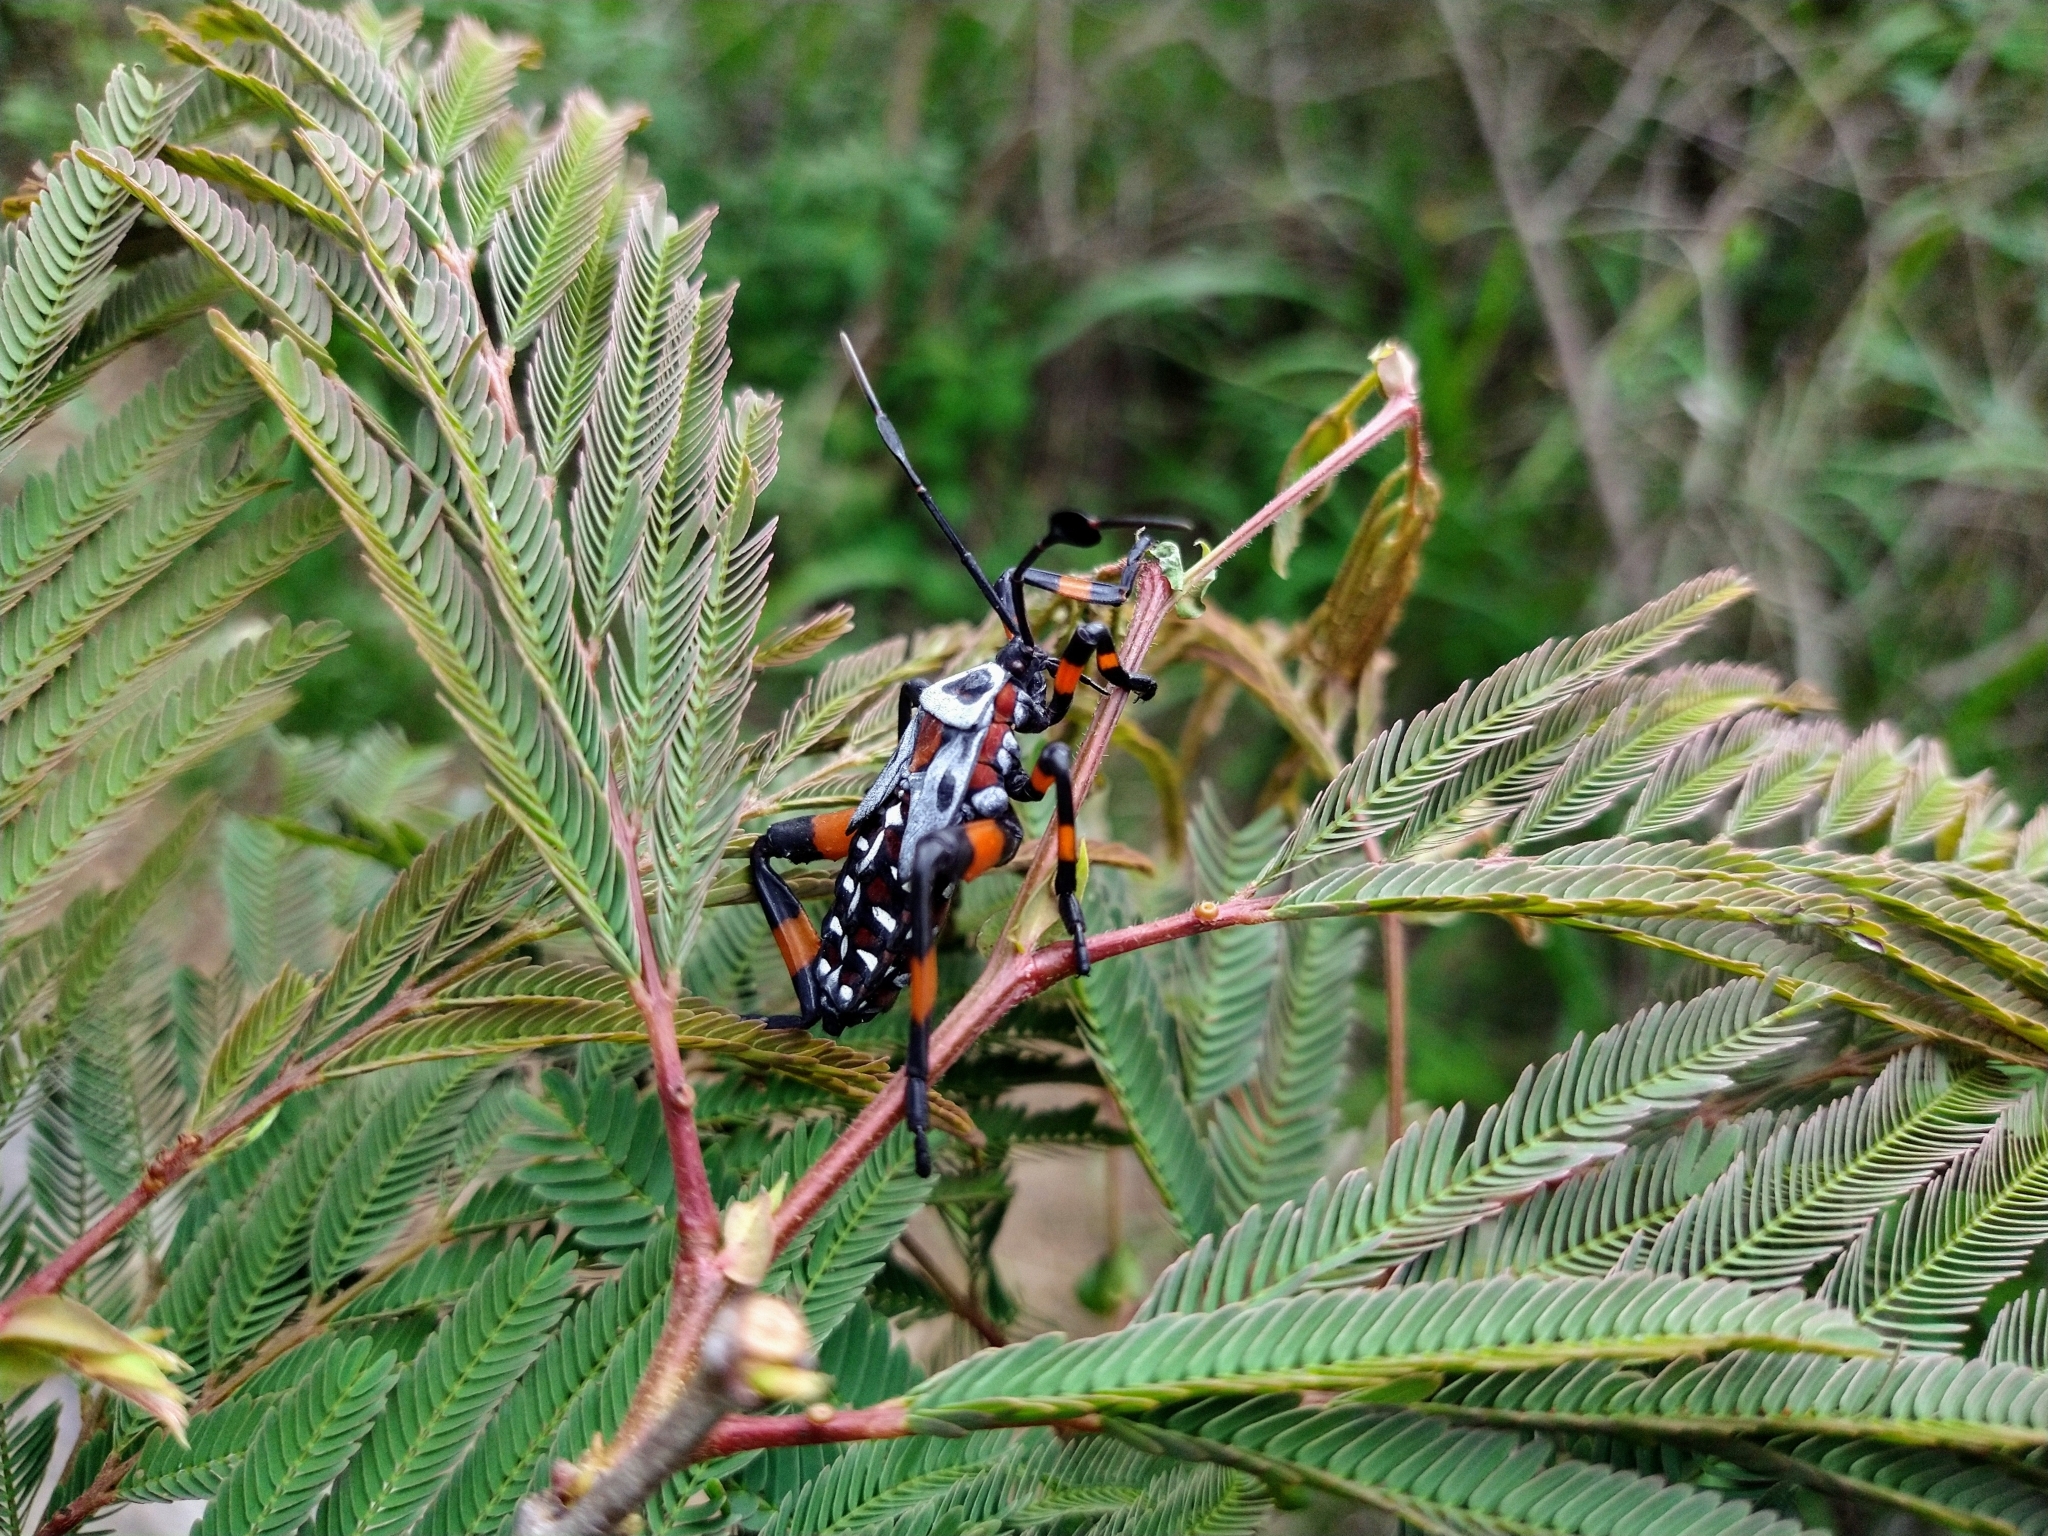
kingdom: Animalia
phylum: Arthropoda
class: Insecta
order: Hemiptera
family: Coreidae
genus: Thasus
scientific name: Thasus
